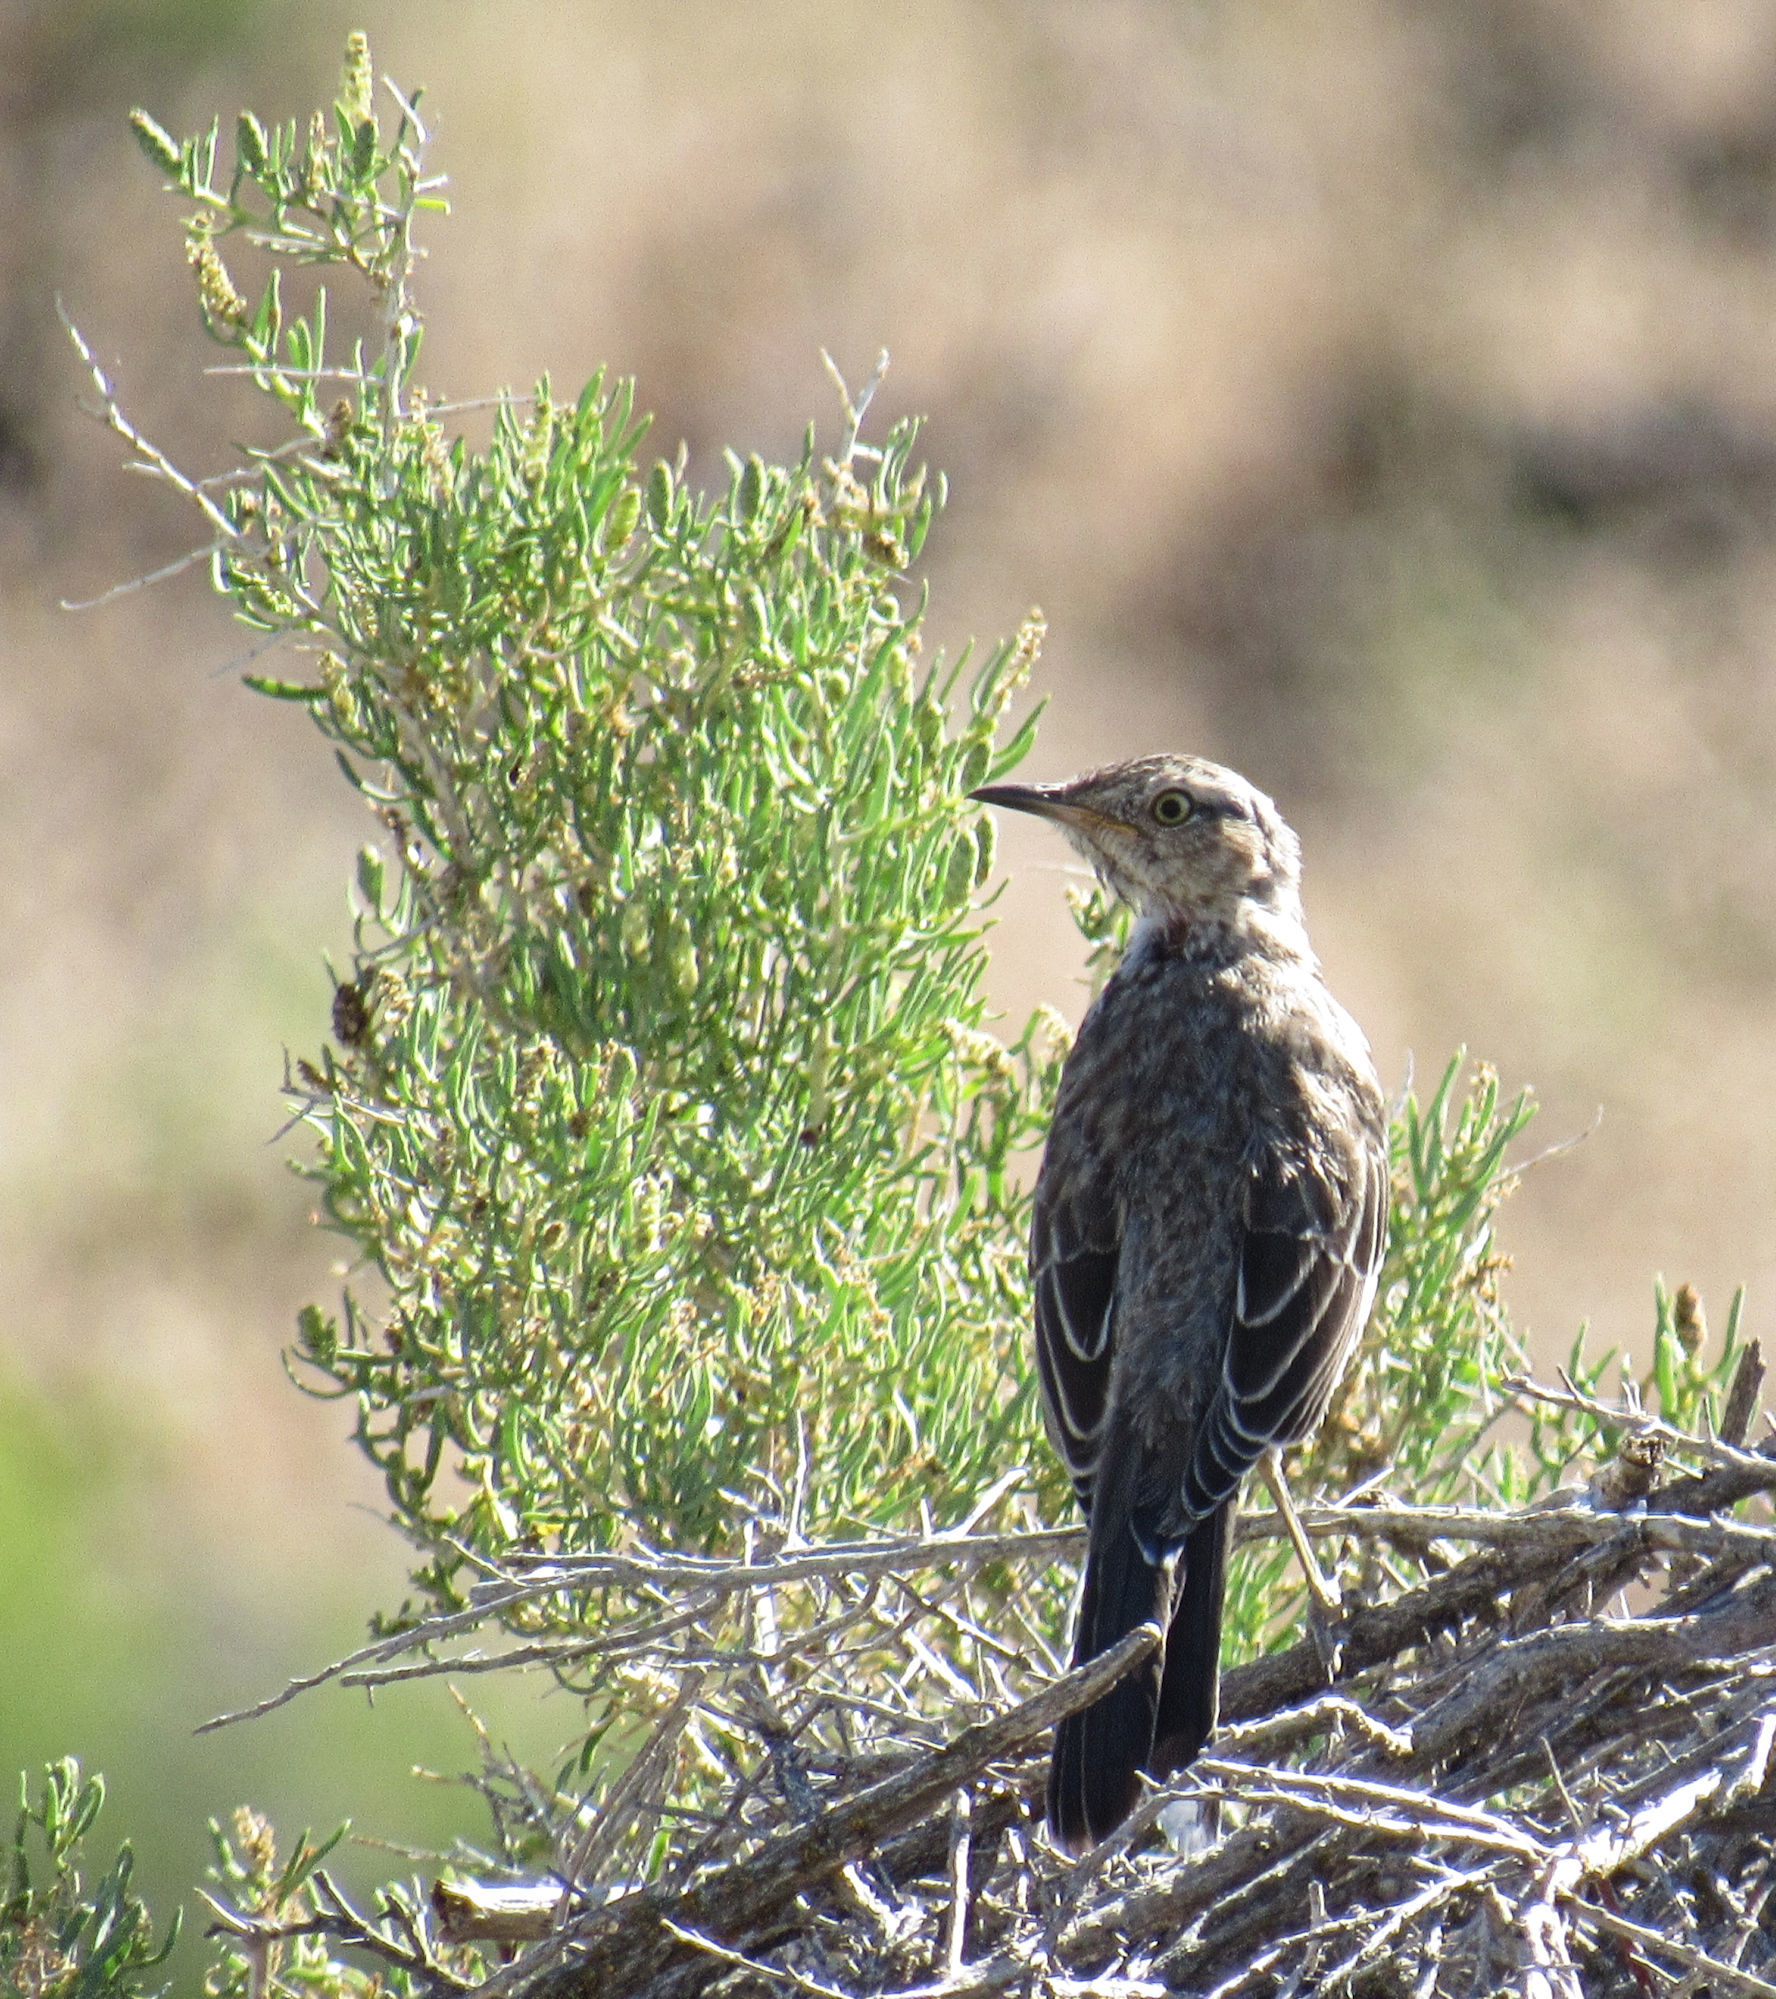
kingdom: Animalia
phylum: Chordata
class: Aves
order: Passeriformes
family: Mimidae
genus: Oreoscoptes
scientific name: Oreoscoptes montanus
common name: Sage thrasher
